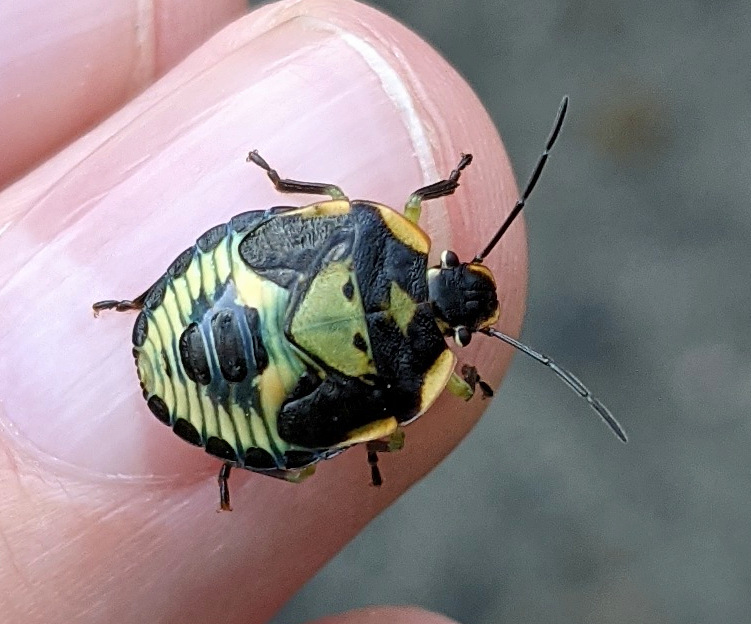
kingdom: Animalia
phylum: Arthropoda
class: Insecta
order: Hemiptera
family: Pentatomidae
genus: Chinavia
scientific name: Chinavia hilaris
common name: Green stink bug
